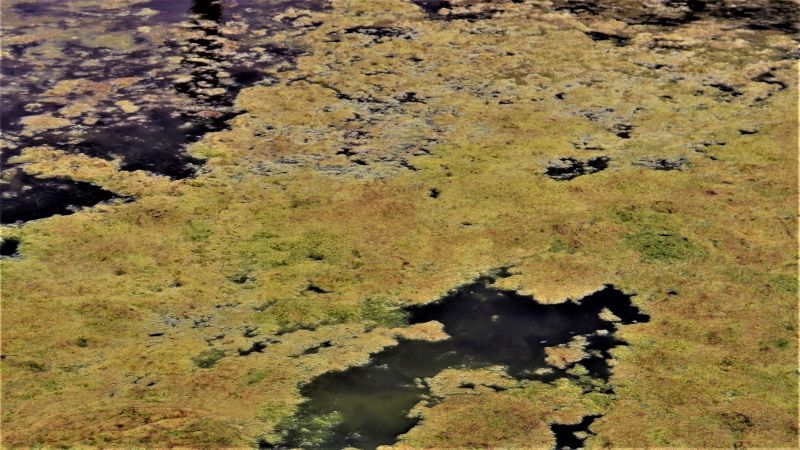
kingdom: Plantae
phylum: Tracheophyta
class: Polypodiopsida
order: Salviniales
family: Salviniaceae
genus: Azolla
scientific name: Azolla filiculoides
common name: Water fern
